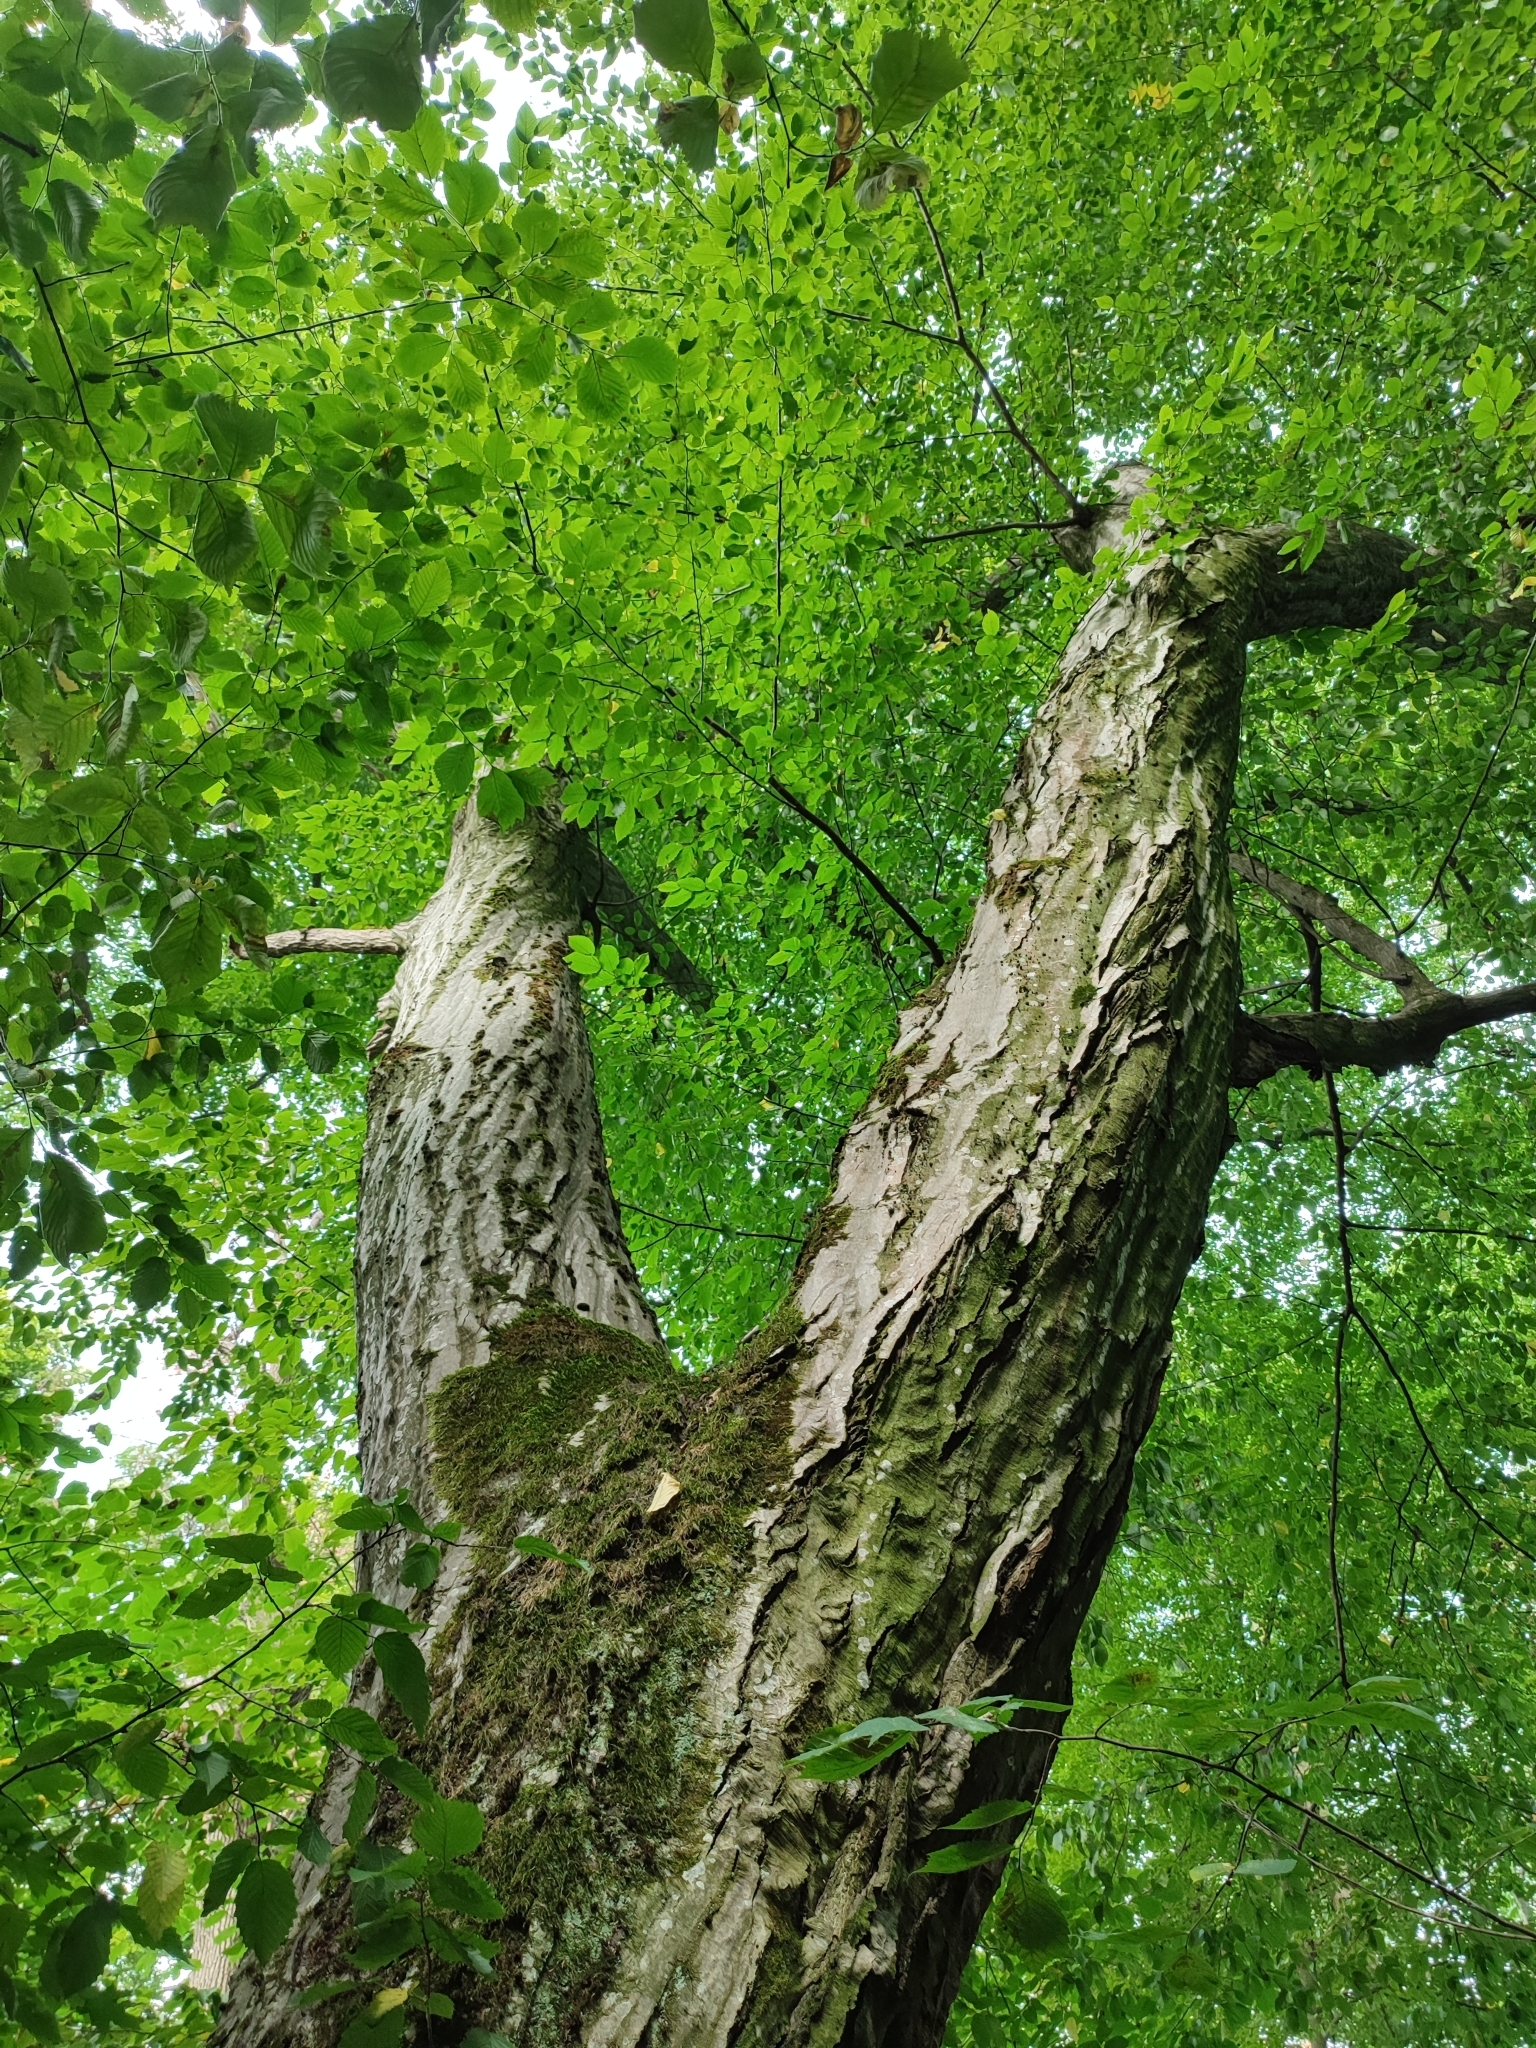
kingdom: Plantae
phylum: Tracheophyta
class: Magnoliopsida
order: Fagales
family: Betulaceae
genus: Carpinus
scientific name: Carpinus betulus
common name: Hornbeam
